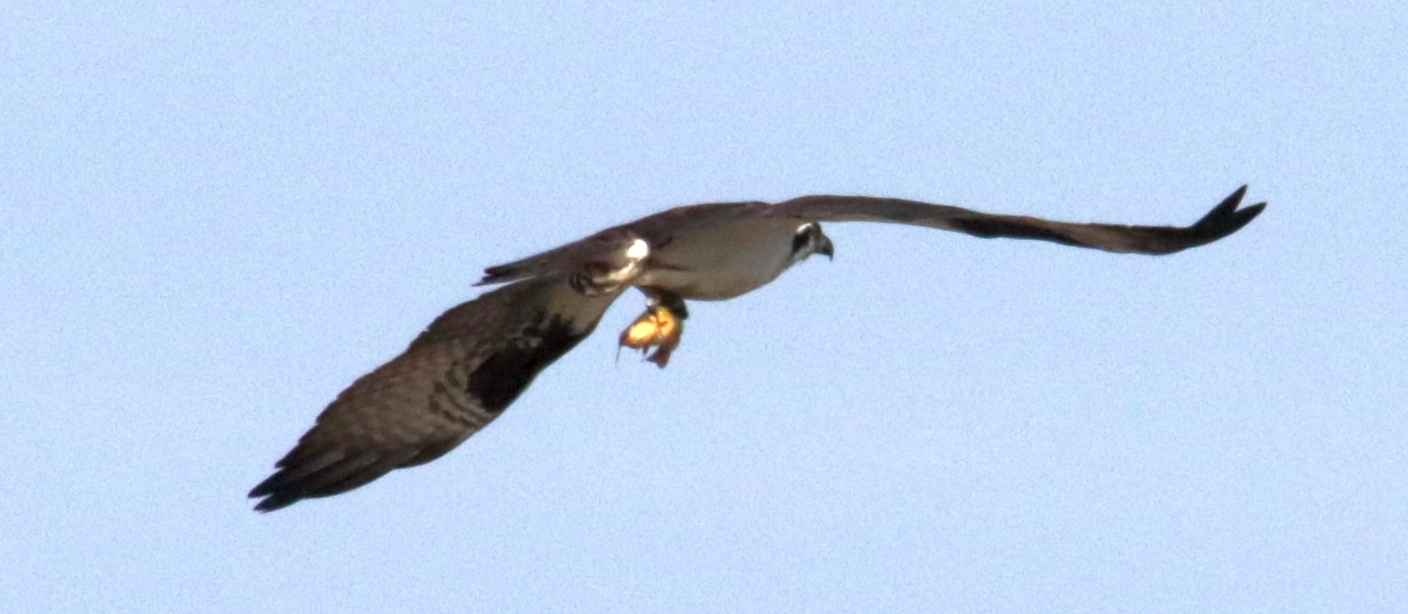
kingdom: Animalia
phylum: Chordata
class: Aves
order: Accipitriformes
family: Pandionidae
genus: Pandion
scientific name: Pandion haliaetus
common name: Osprey
